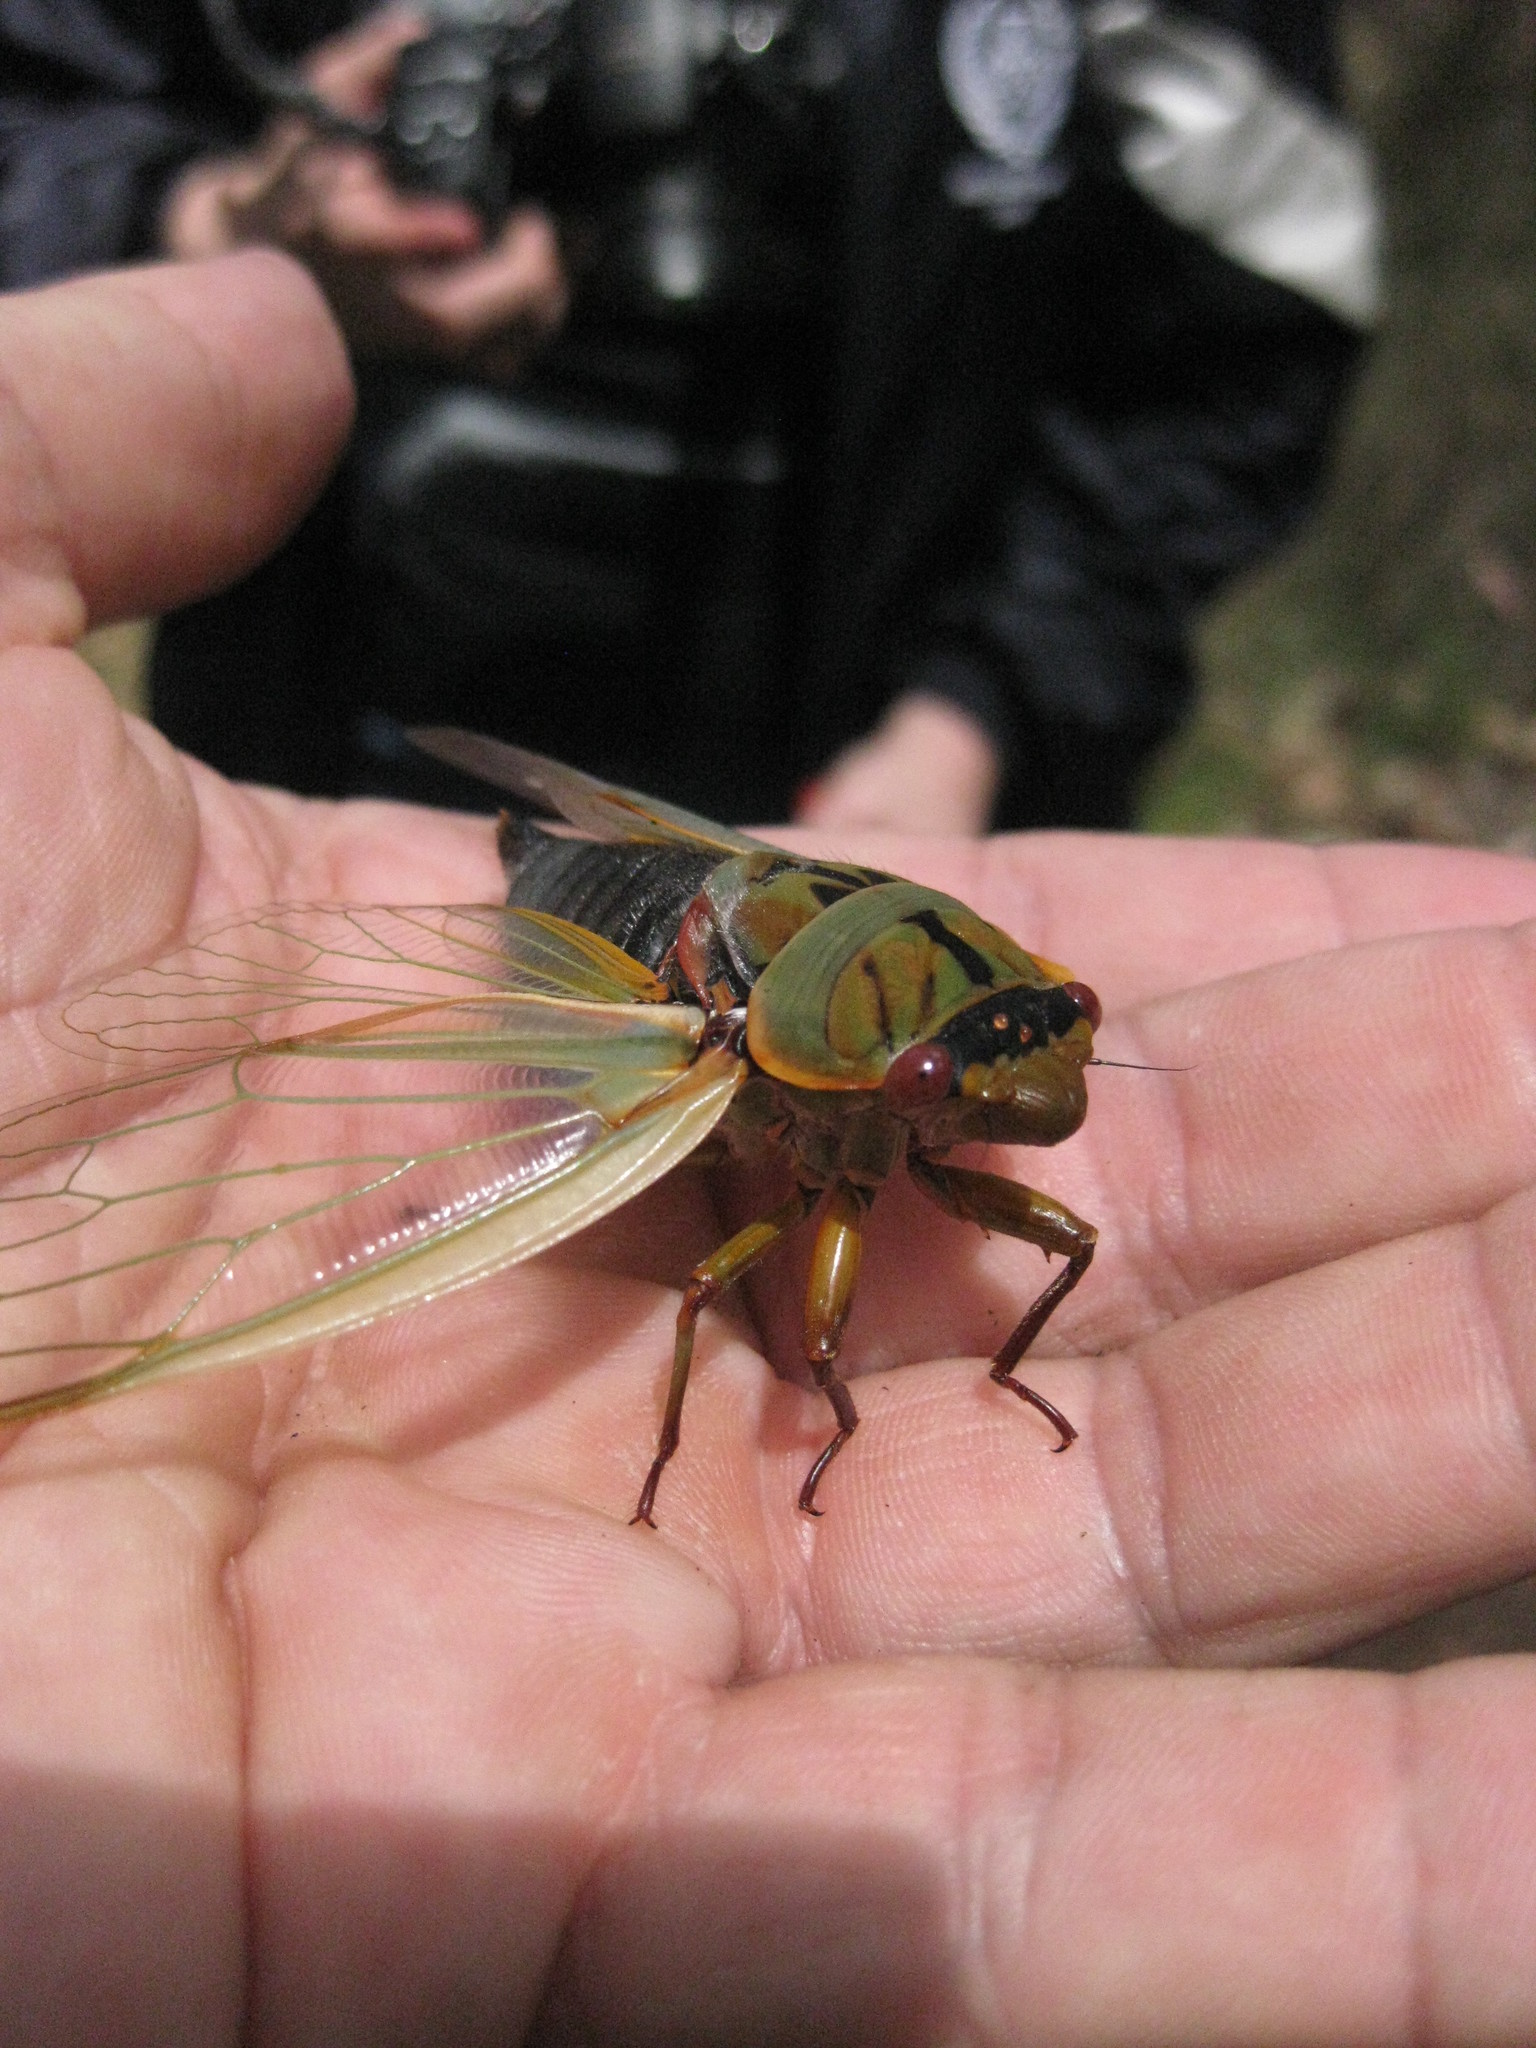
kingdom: Animalia
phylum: Arthropoda
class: Insecta
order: Hemiptera
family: Cicadidae
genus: Cyclochila
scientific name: Cyclochila australasiae
